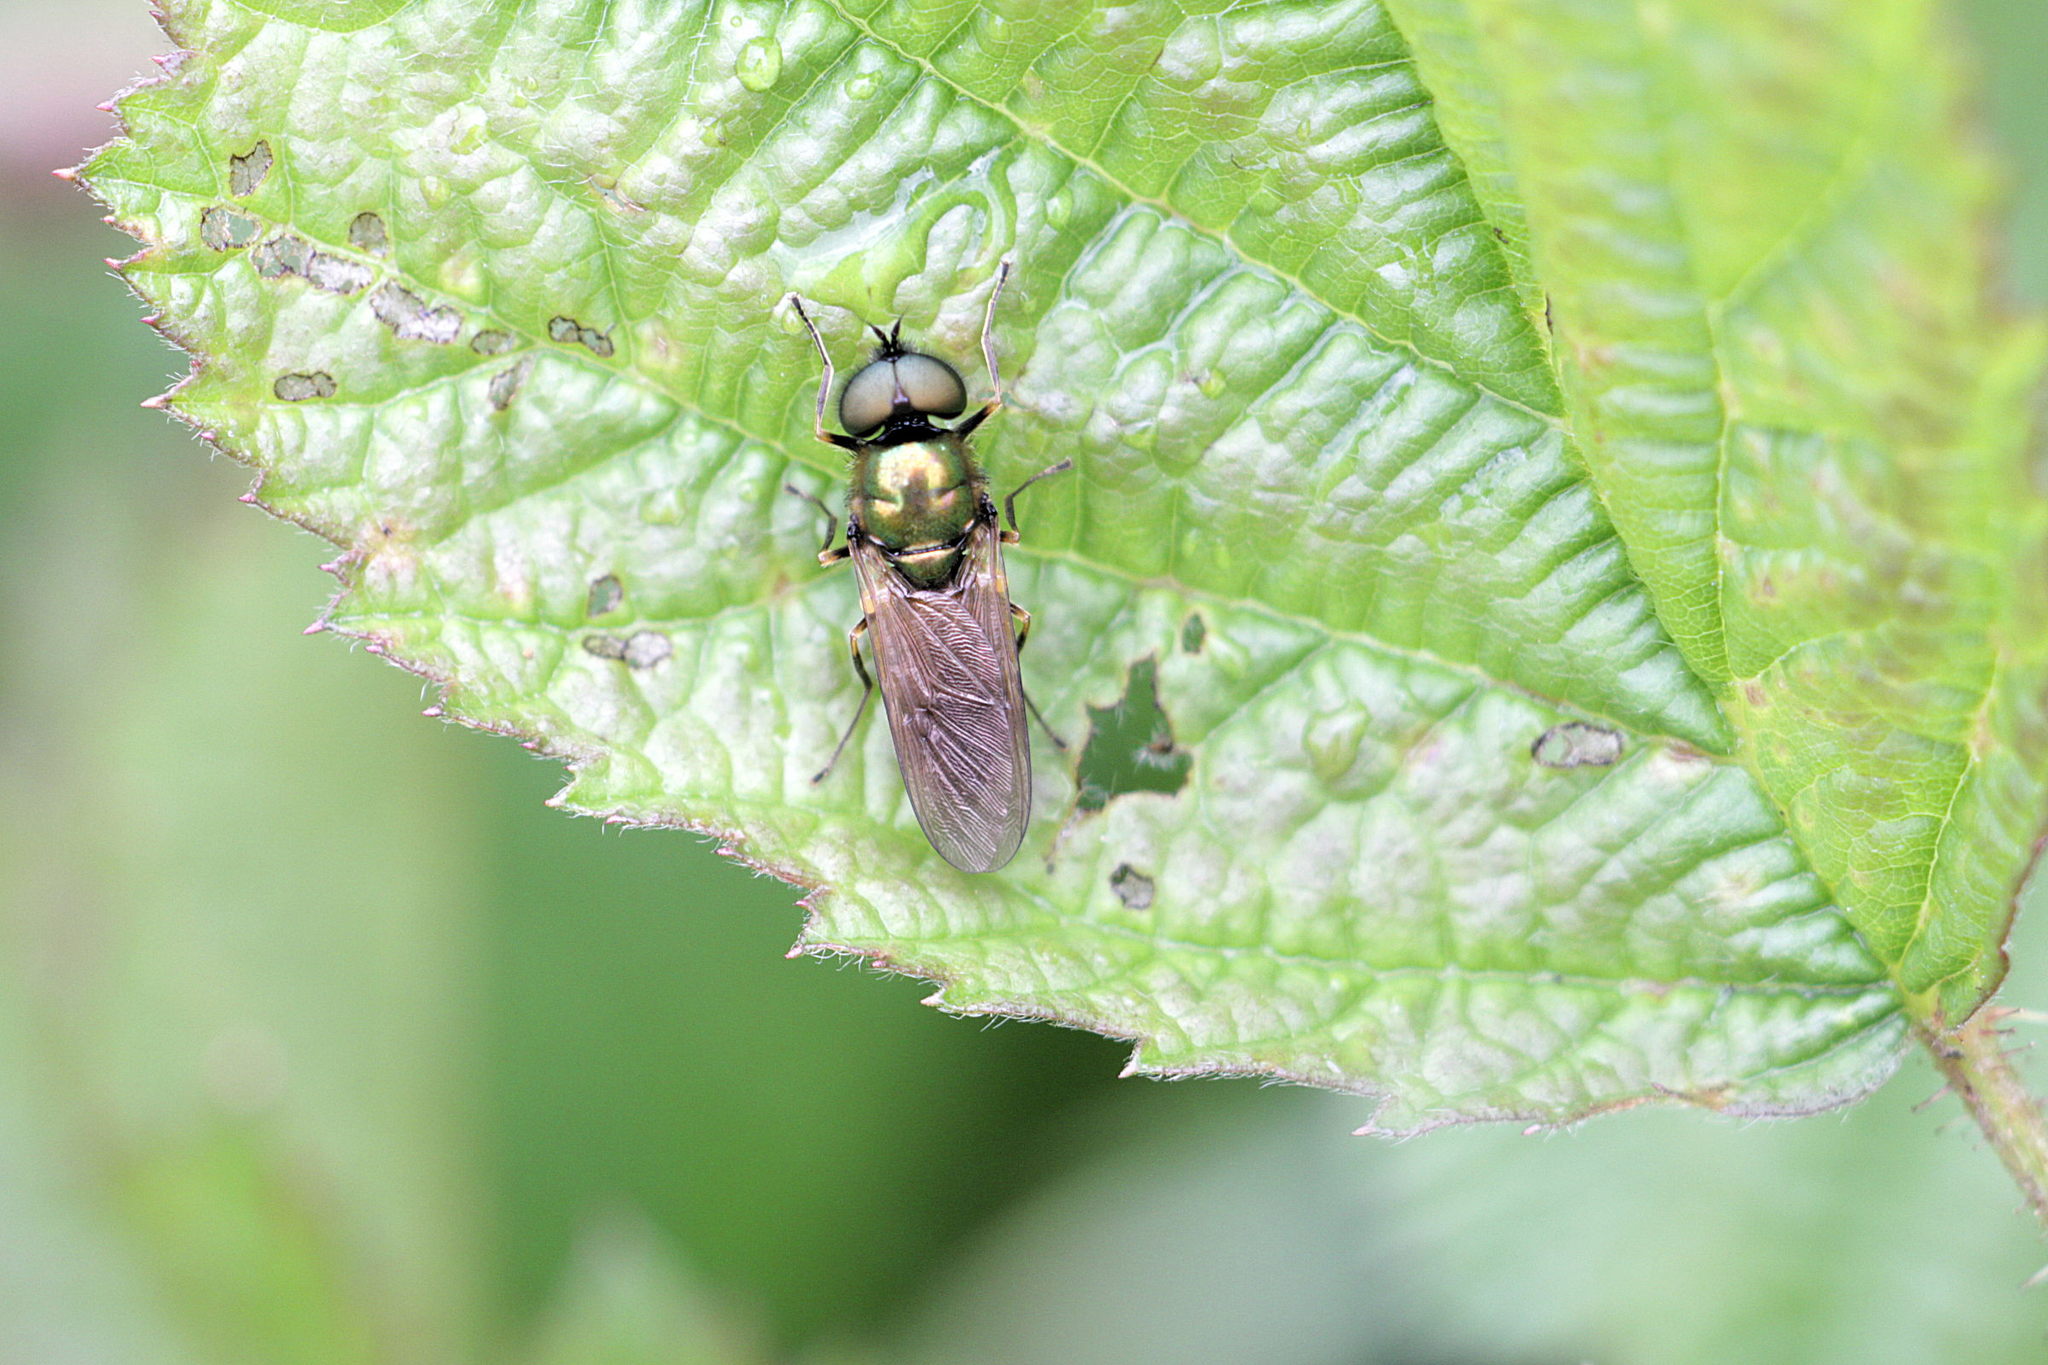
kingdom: Animalia
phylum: Arthropoda
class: Insecta
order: Diptera
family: Stratiomyidae
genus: Chloromyia
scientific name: Chloromyia formosa
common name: Soldier fly
